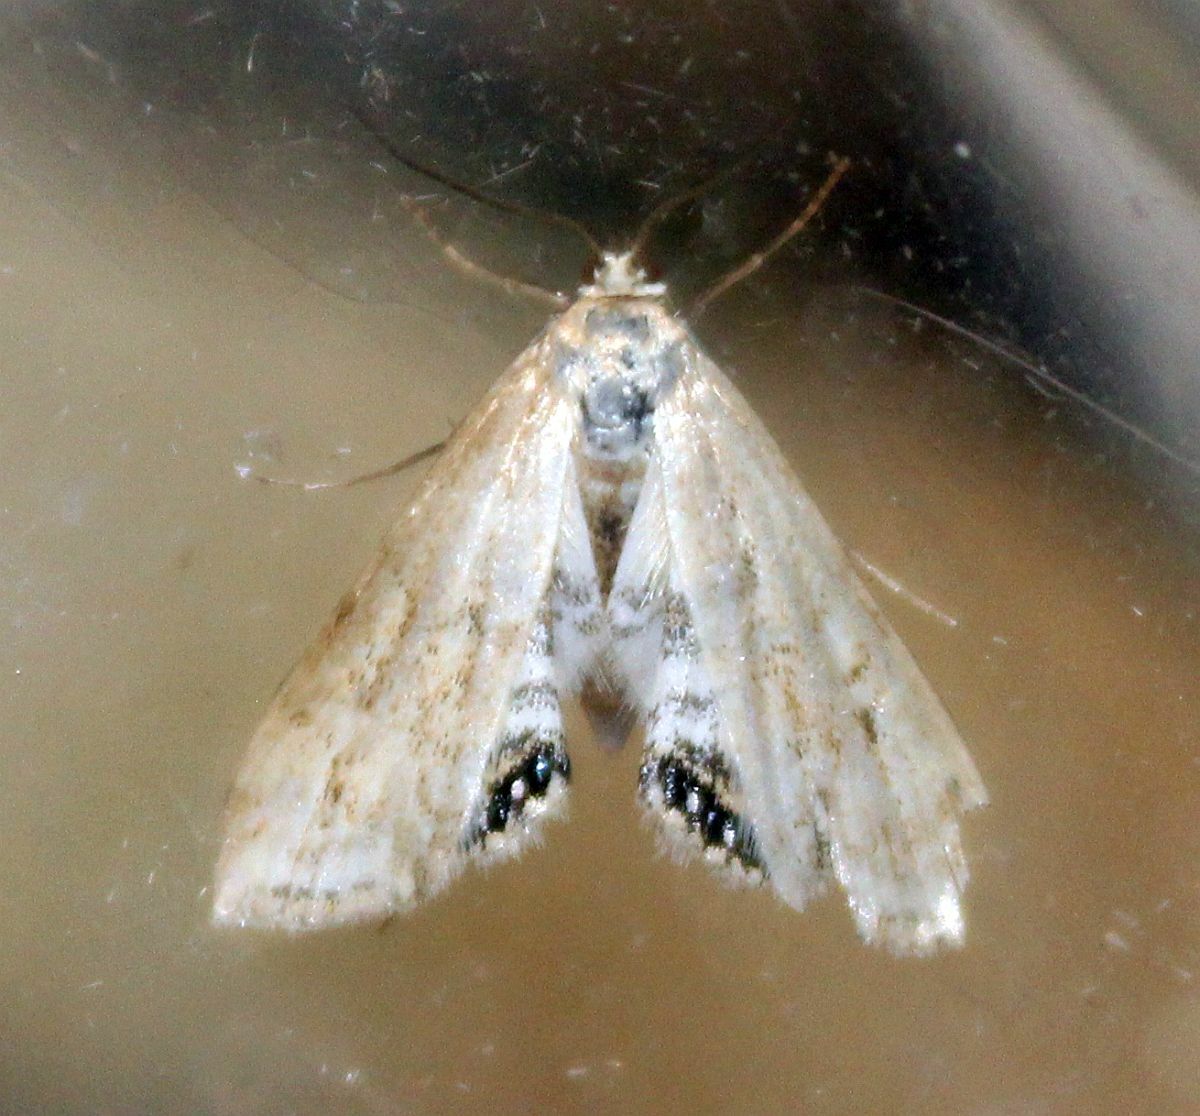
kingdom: Animalia
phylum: Arthropoda
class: Insecta
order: Lepidoptera
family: Crambidae
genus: Cataclysta
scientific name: Cataclysta lemnata
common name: Small china-mark
